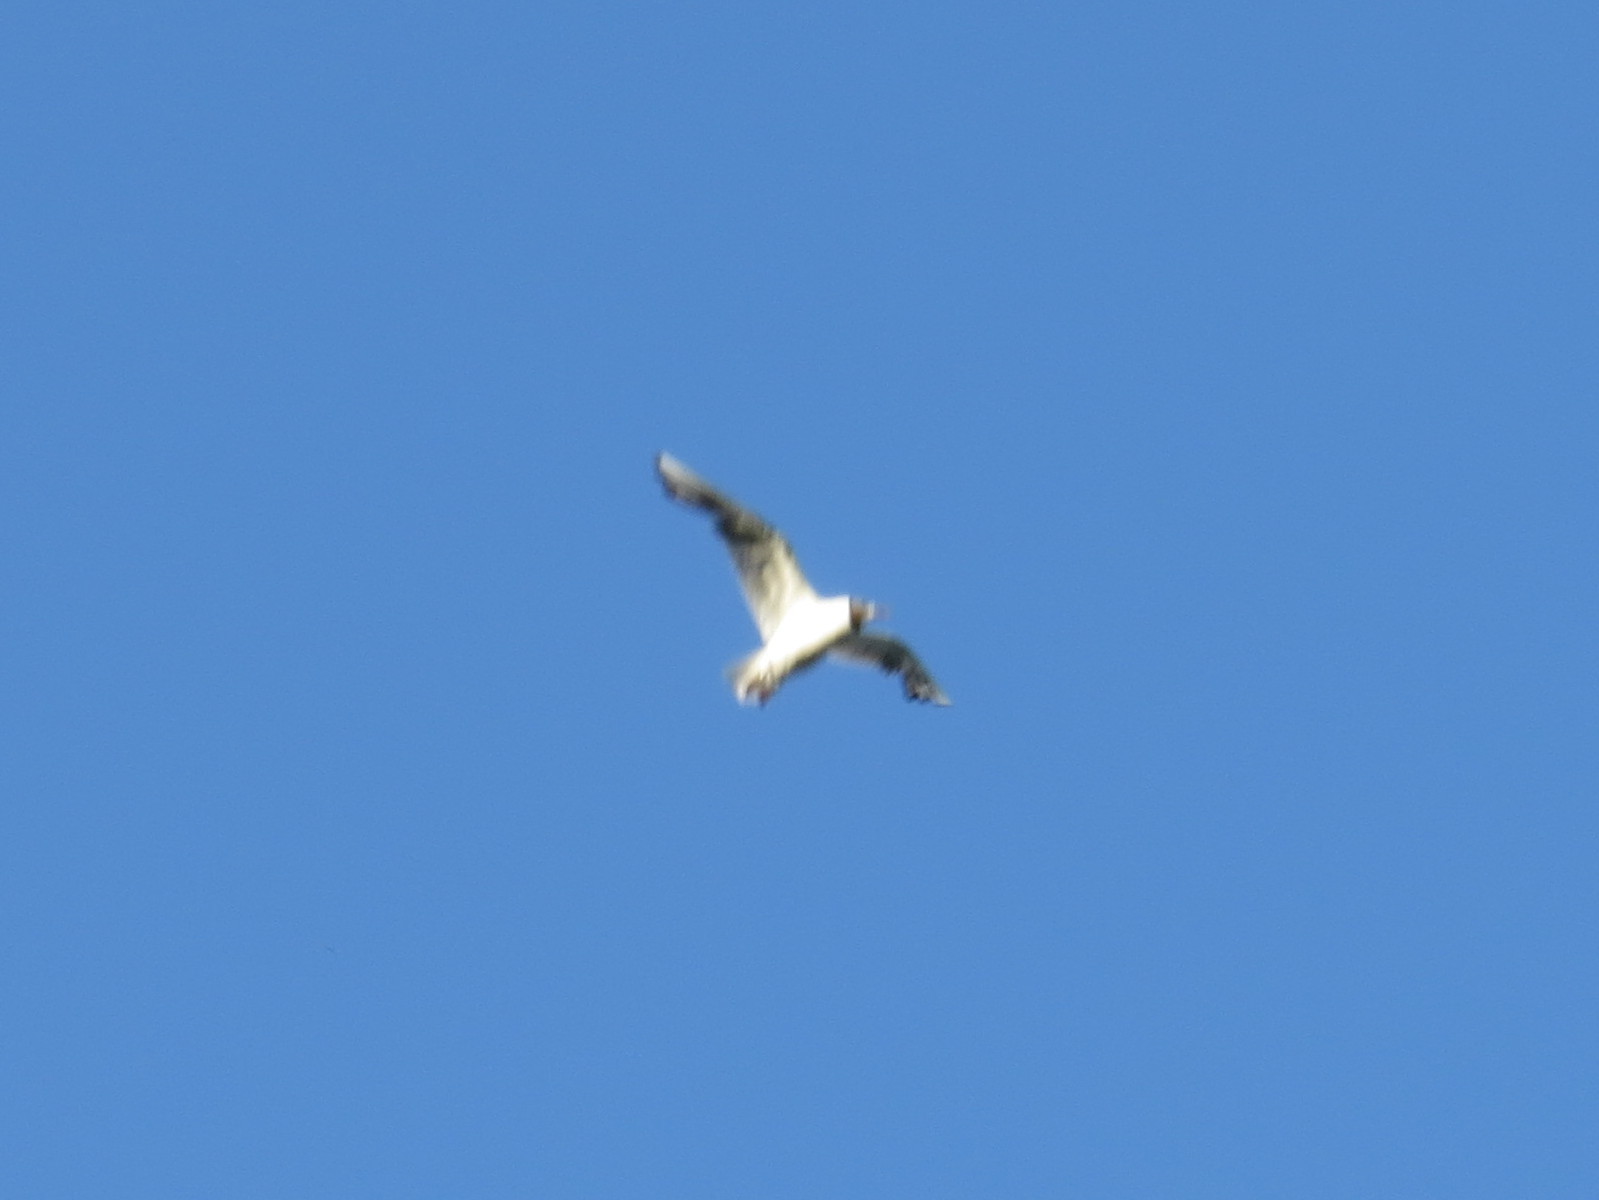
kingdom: Animalia
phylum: Chordata
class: Aves
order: Charadriiformes
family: Laridae
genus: Chroicocephalus
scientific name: Chroicocephalus ridibundus
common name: Black-headed gull
